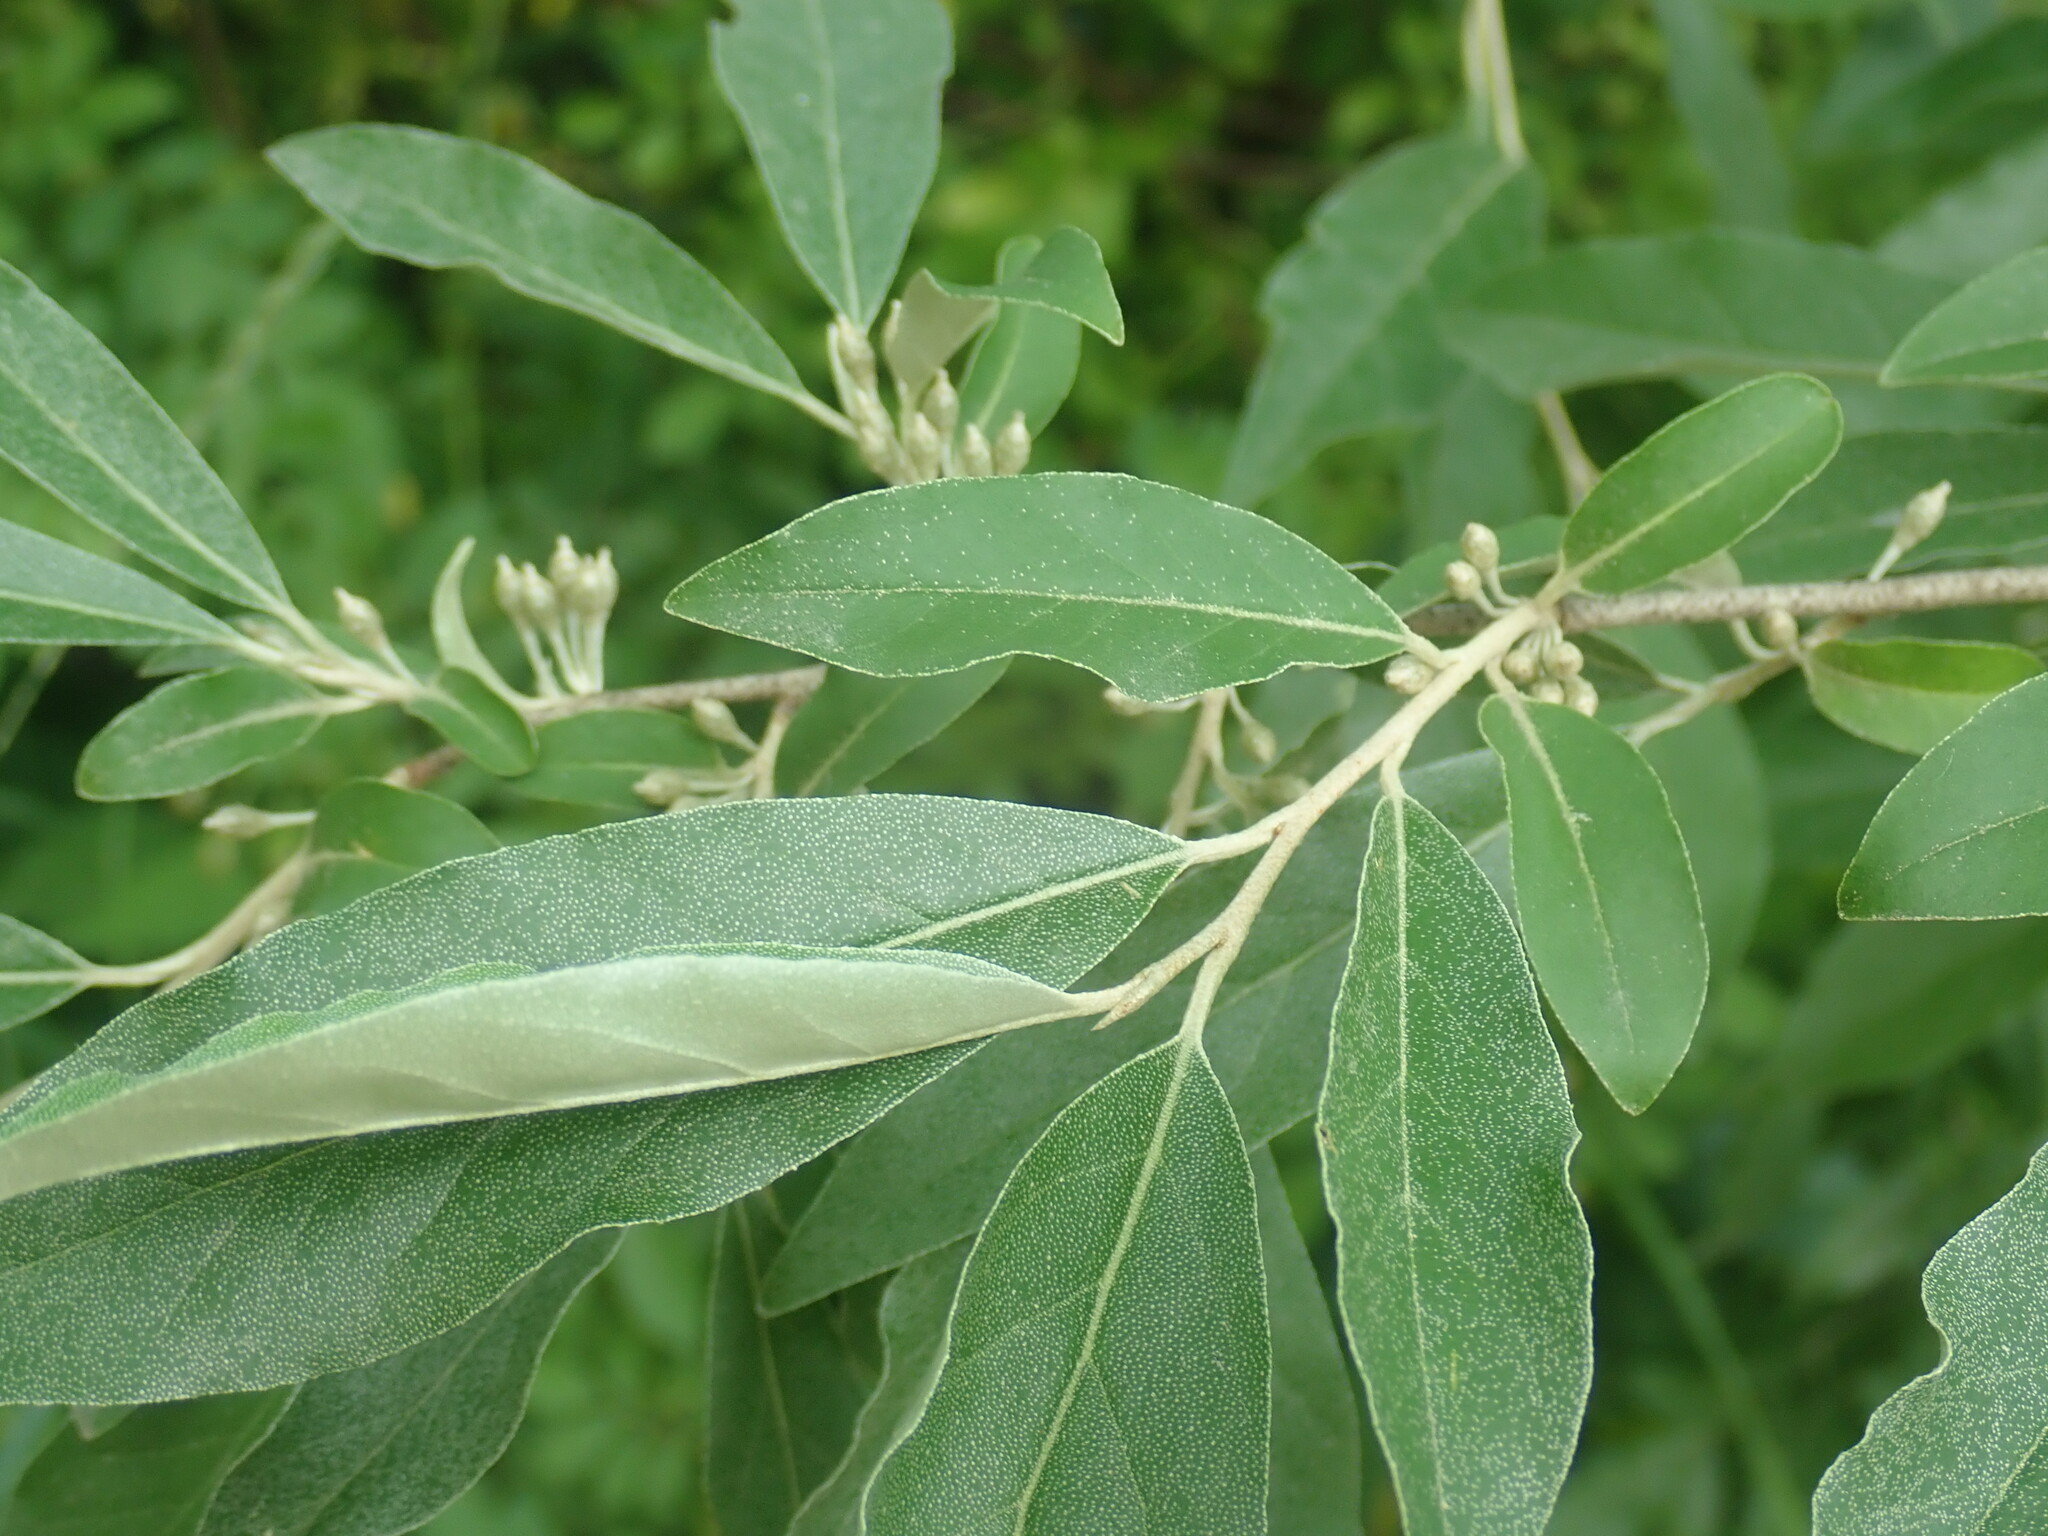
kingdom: Plantae
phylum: Tracheophyta
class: Magnoliopsida
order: Rosales
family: Elaeagnaceae
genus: Elaeagnus
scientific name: Elaeagnus umbellata
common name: Autumn olive
